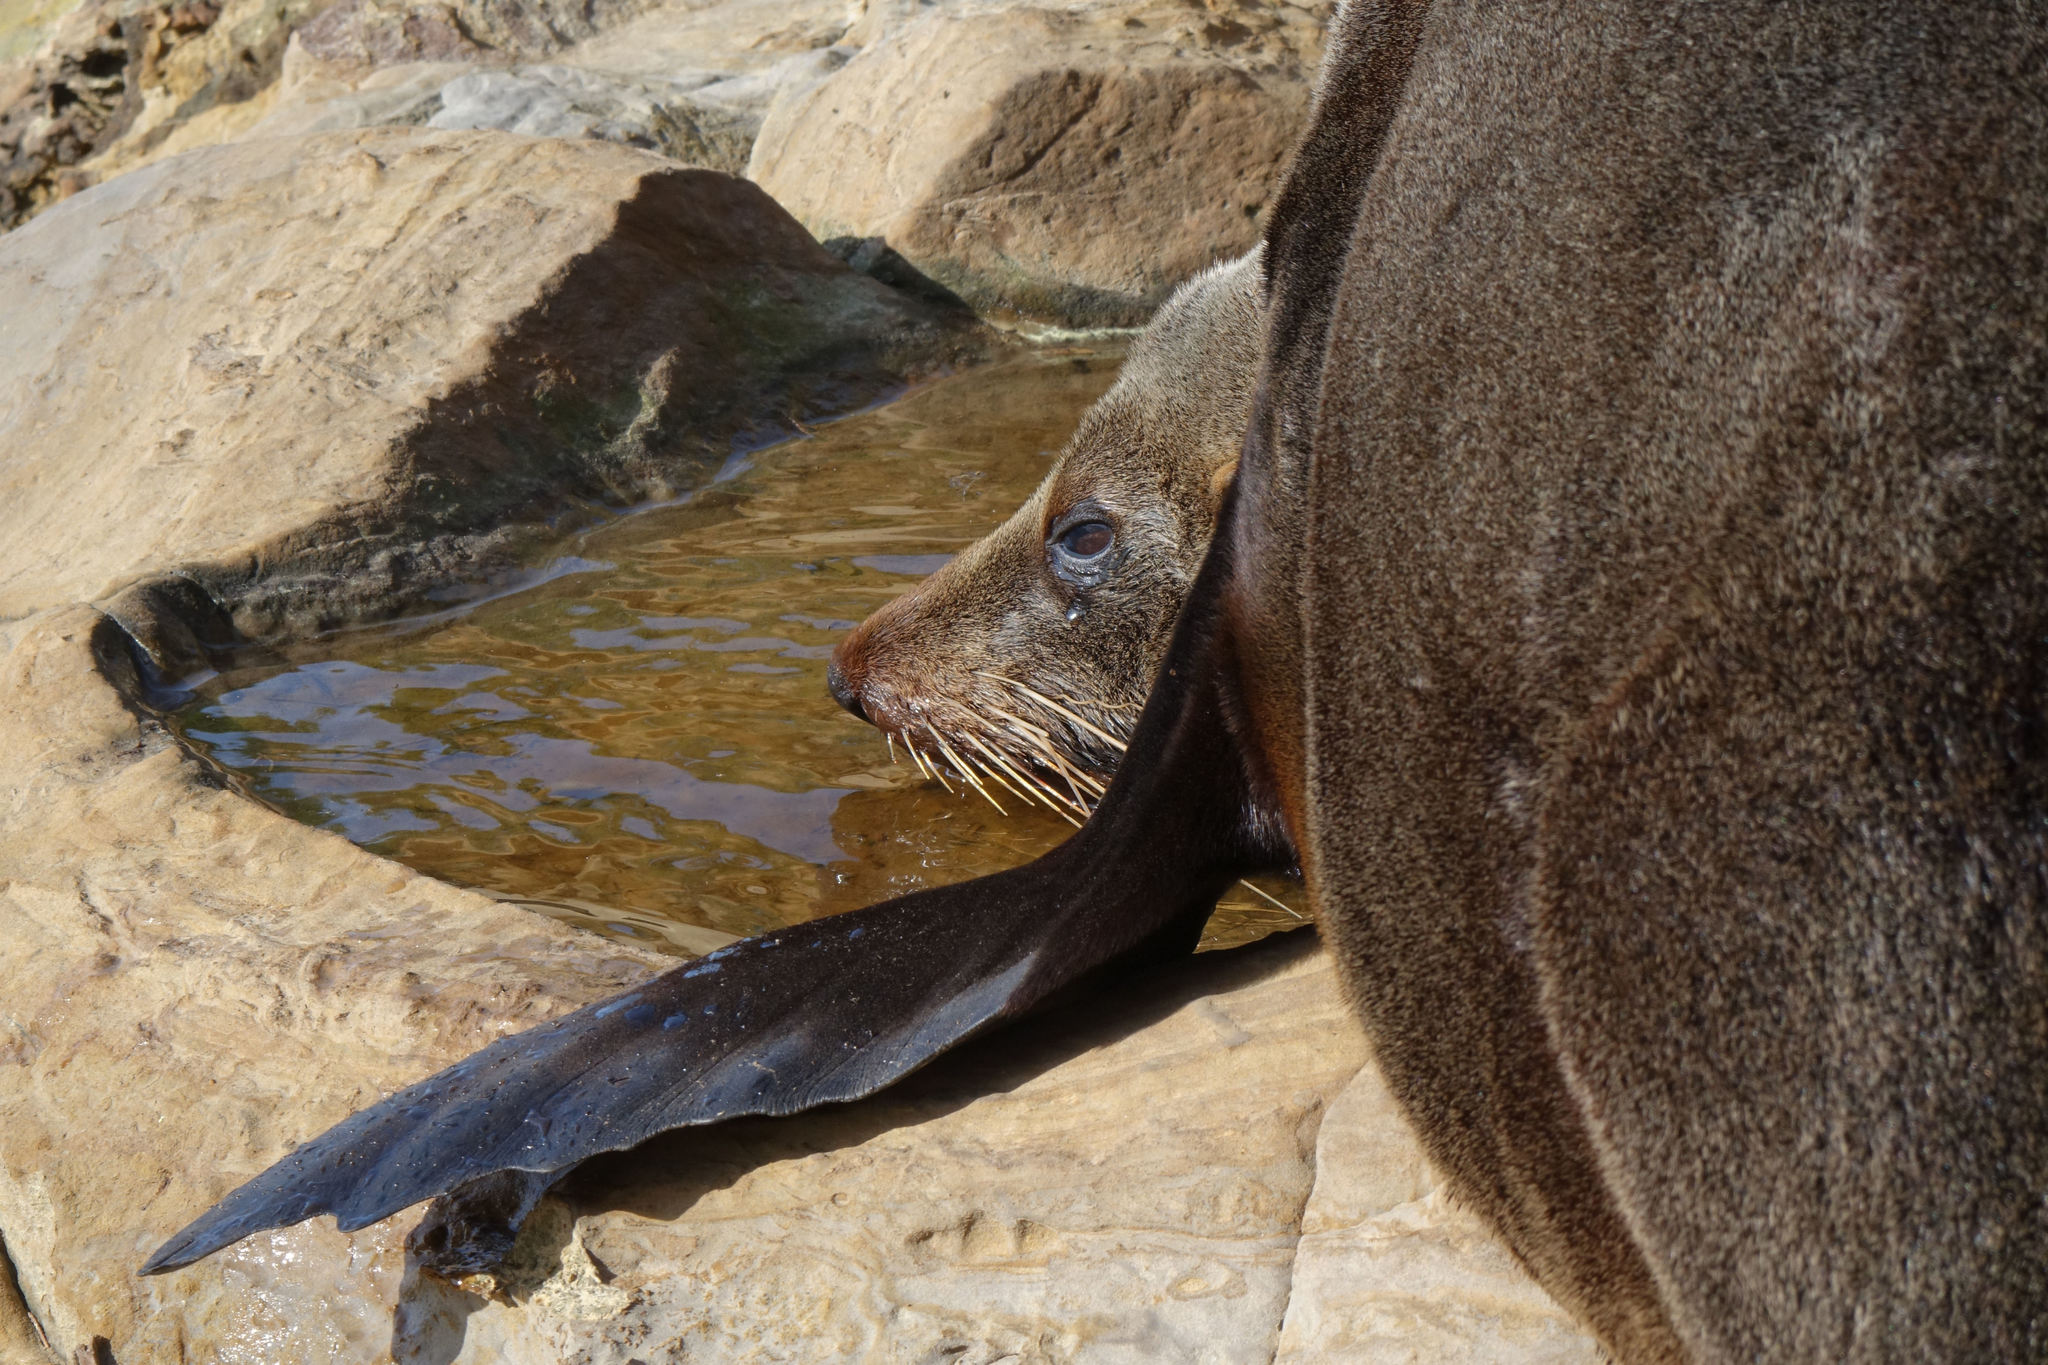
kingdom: Animalia
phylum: Chordata
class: Mammalia
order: Carnivora
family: Otariidae
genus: Arctocephalus
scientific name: Arctocephalus forsteri
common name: New zealand fur seal
